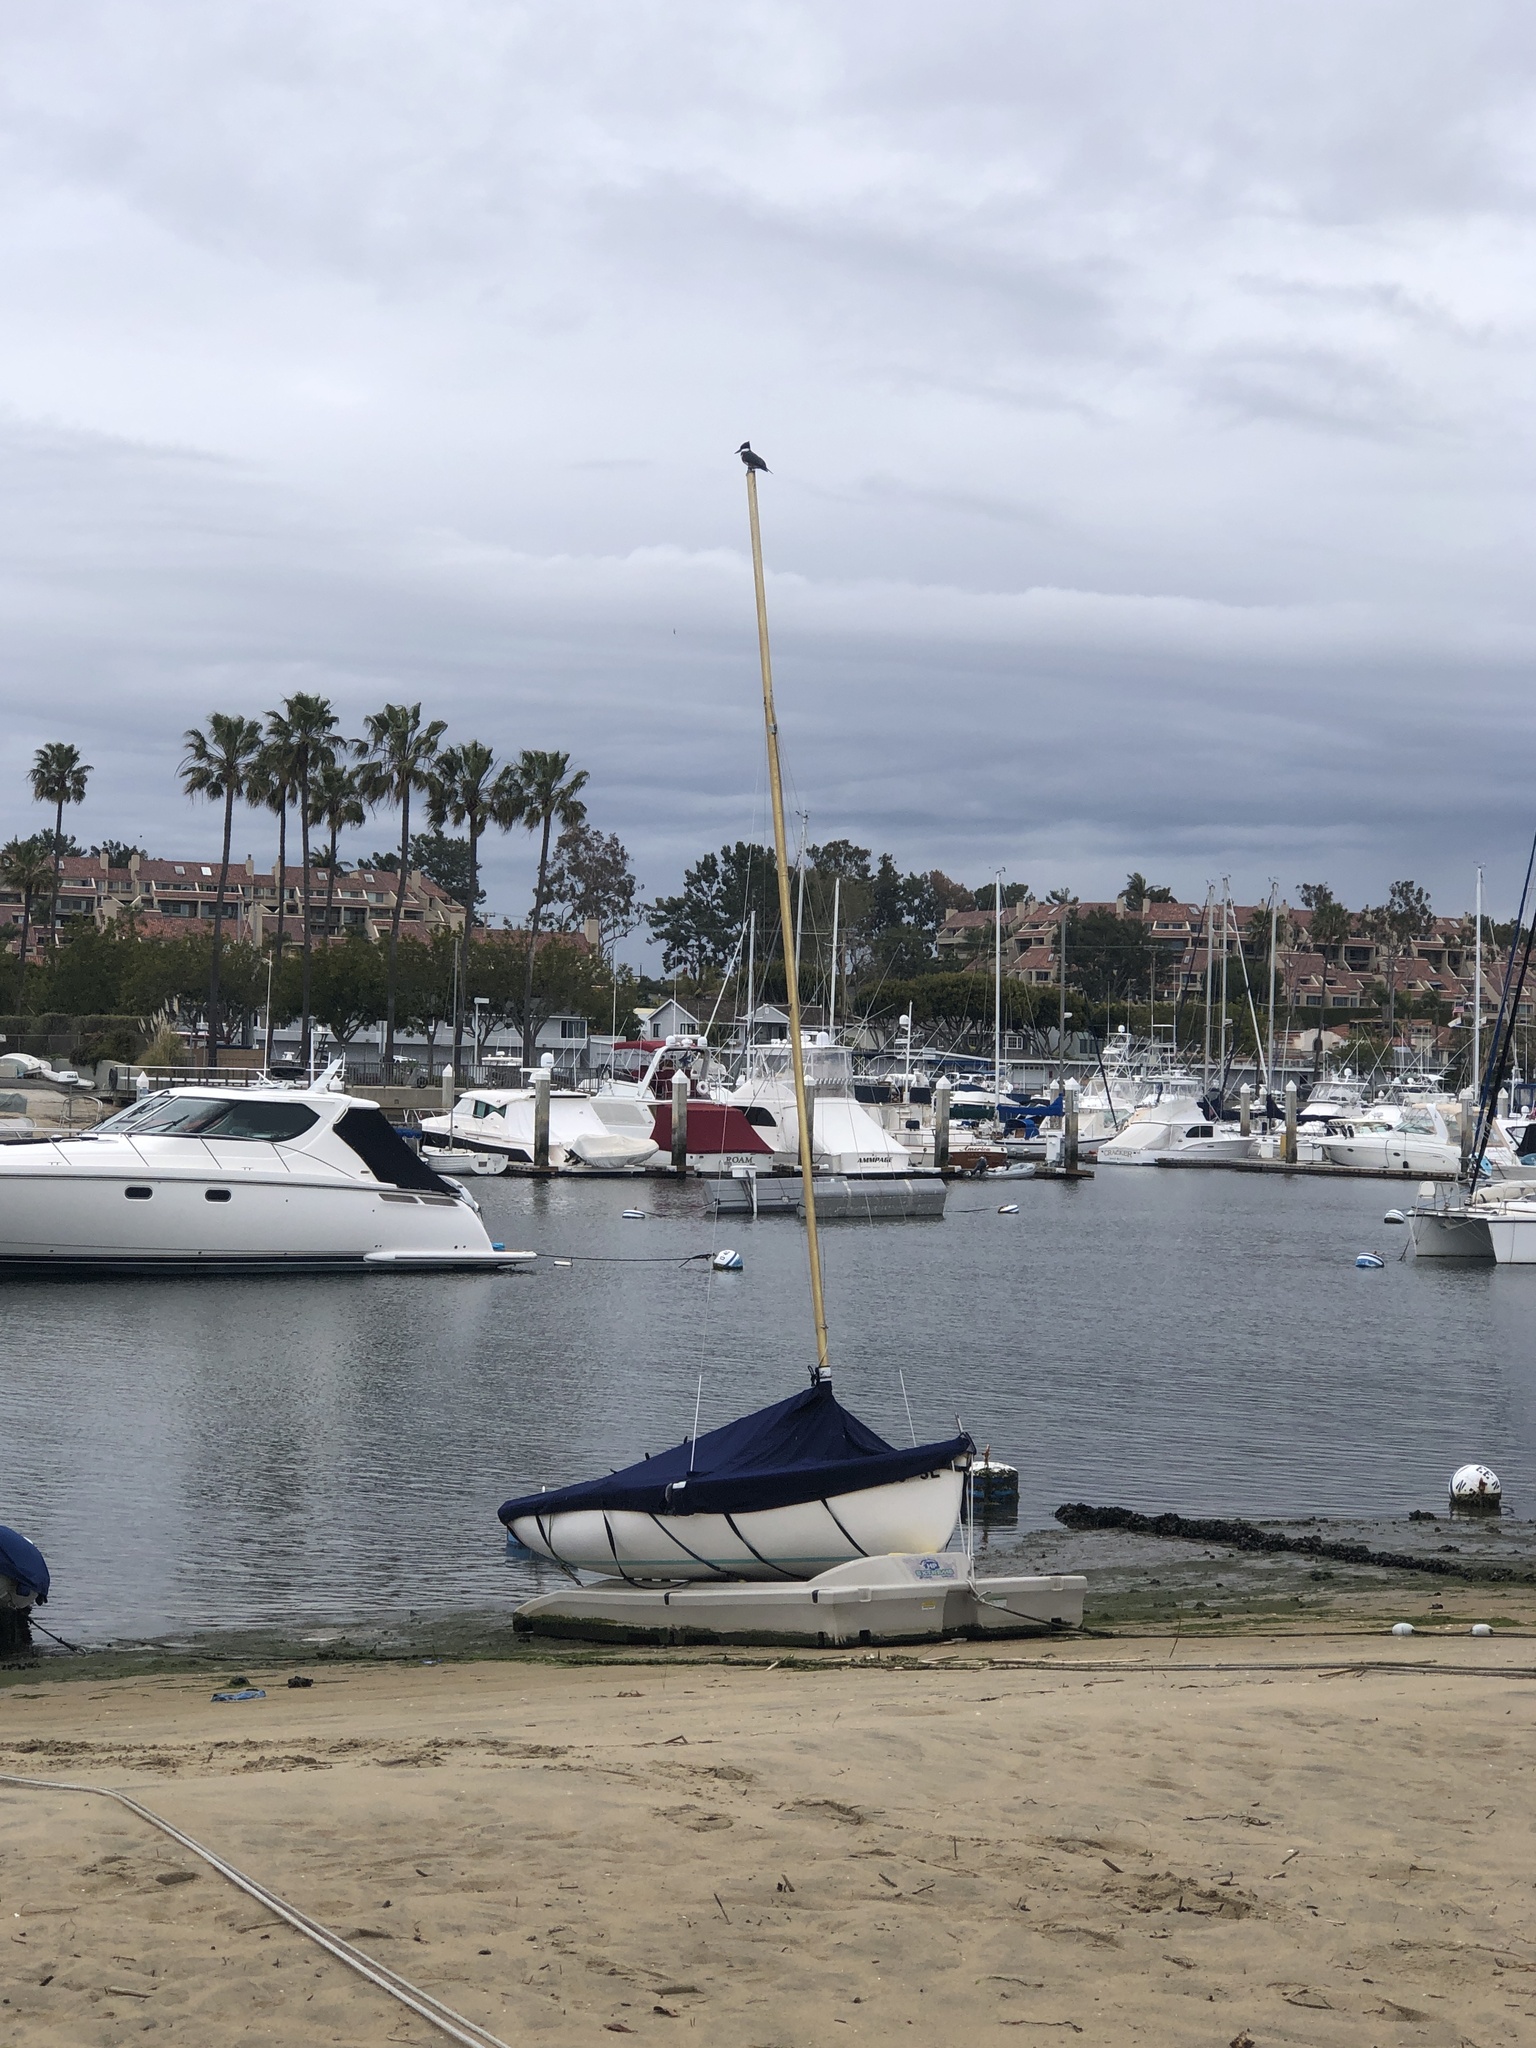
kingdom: Animalia
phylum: Chordata
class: Aves
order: Coraciiformes
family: Alcedinidae
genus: Megaceryle
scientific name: Megaceryle alcyon
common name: Belted kingfisher
